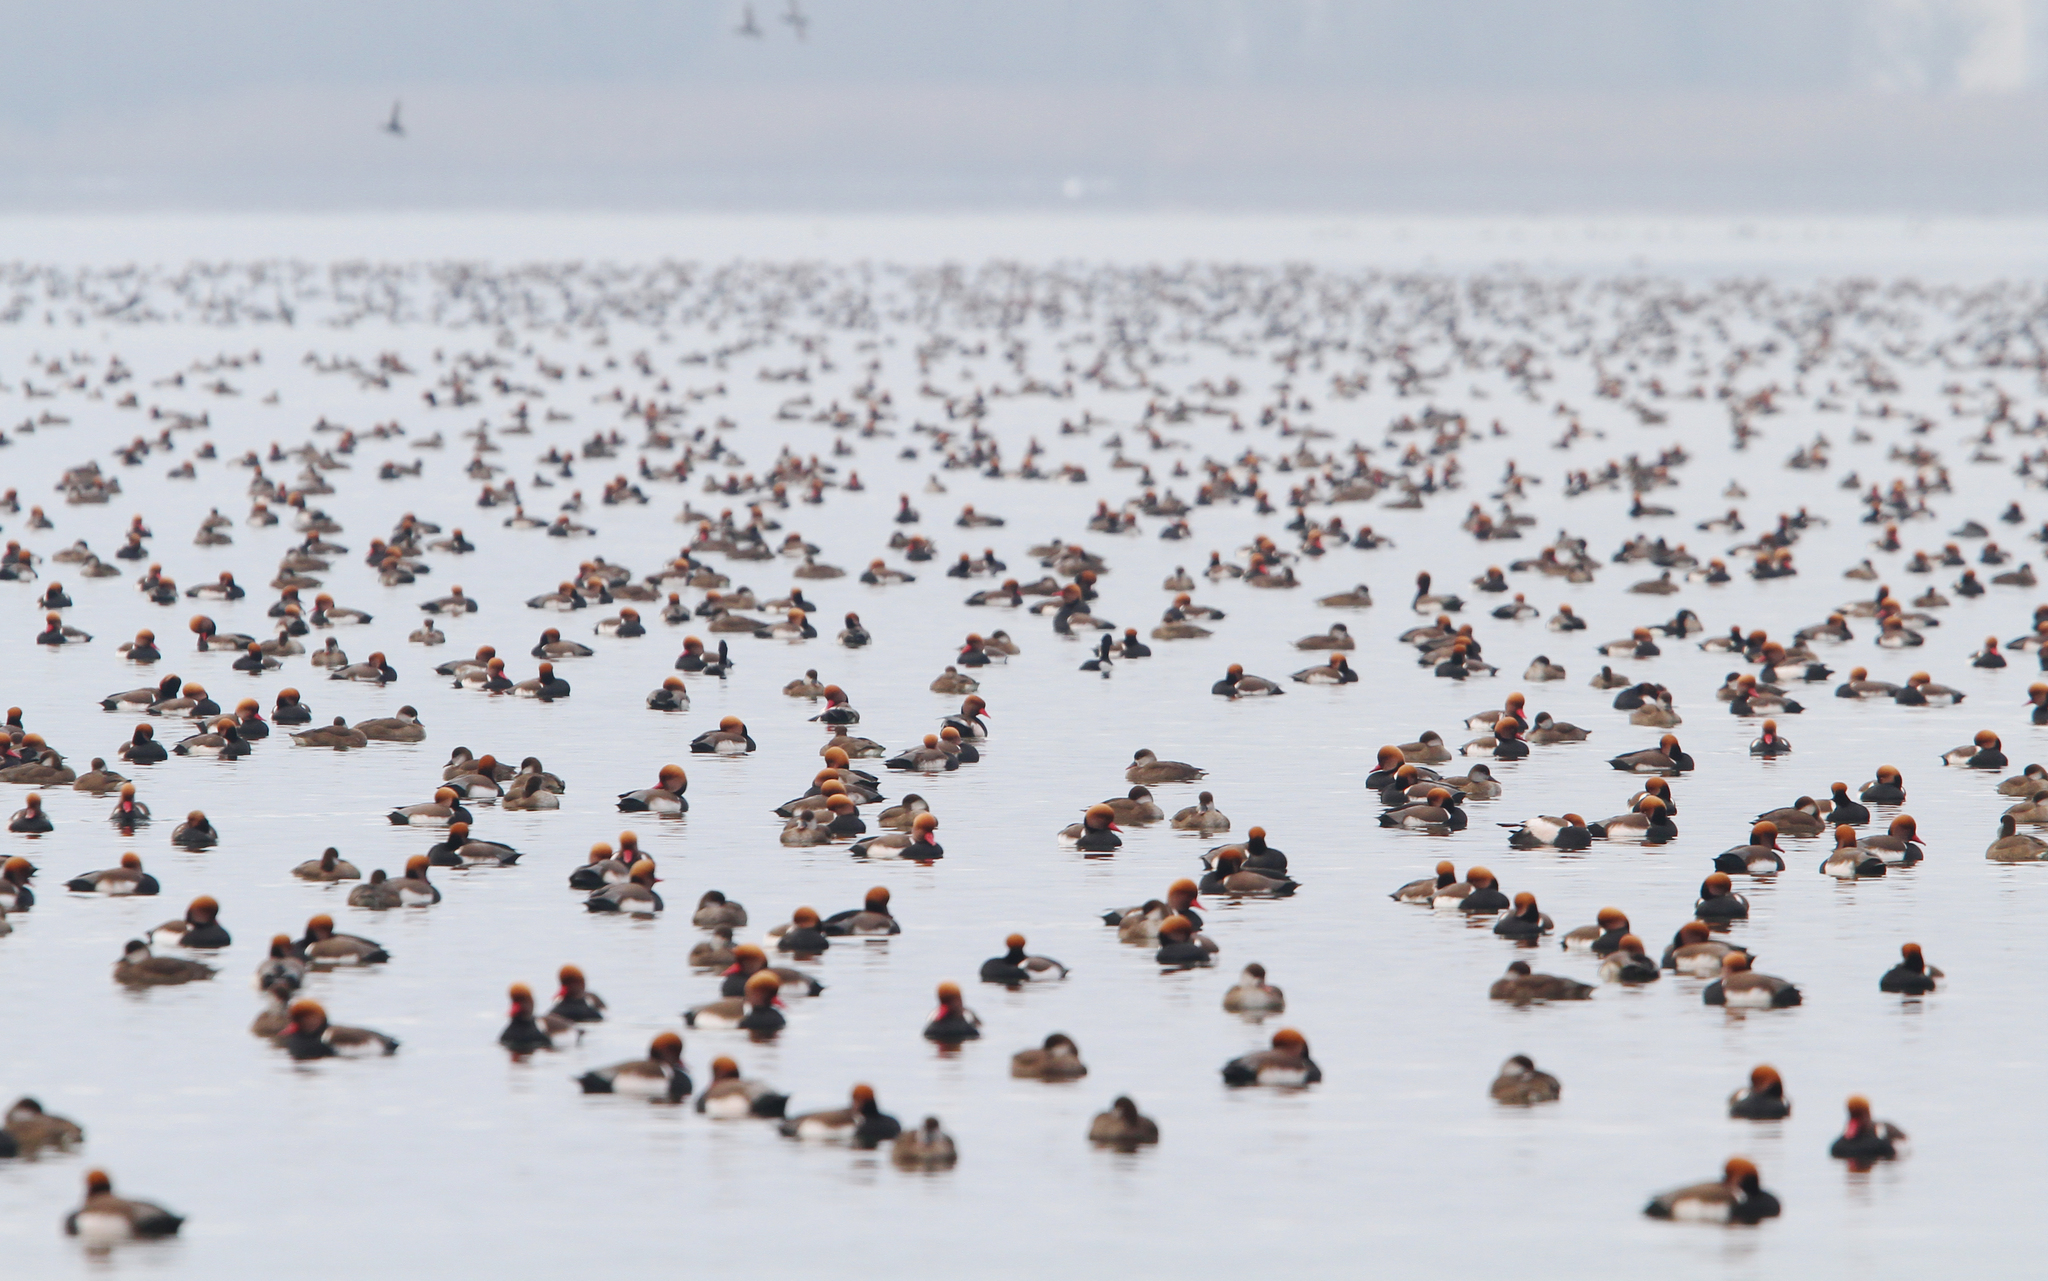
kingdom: Animalia
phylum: Chordata
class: Aves
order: Anseriformes
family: Anatidae
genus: Netta
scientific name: Netta rufina
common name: Red-crested pochard
